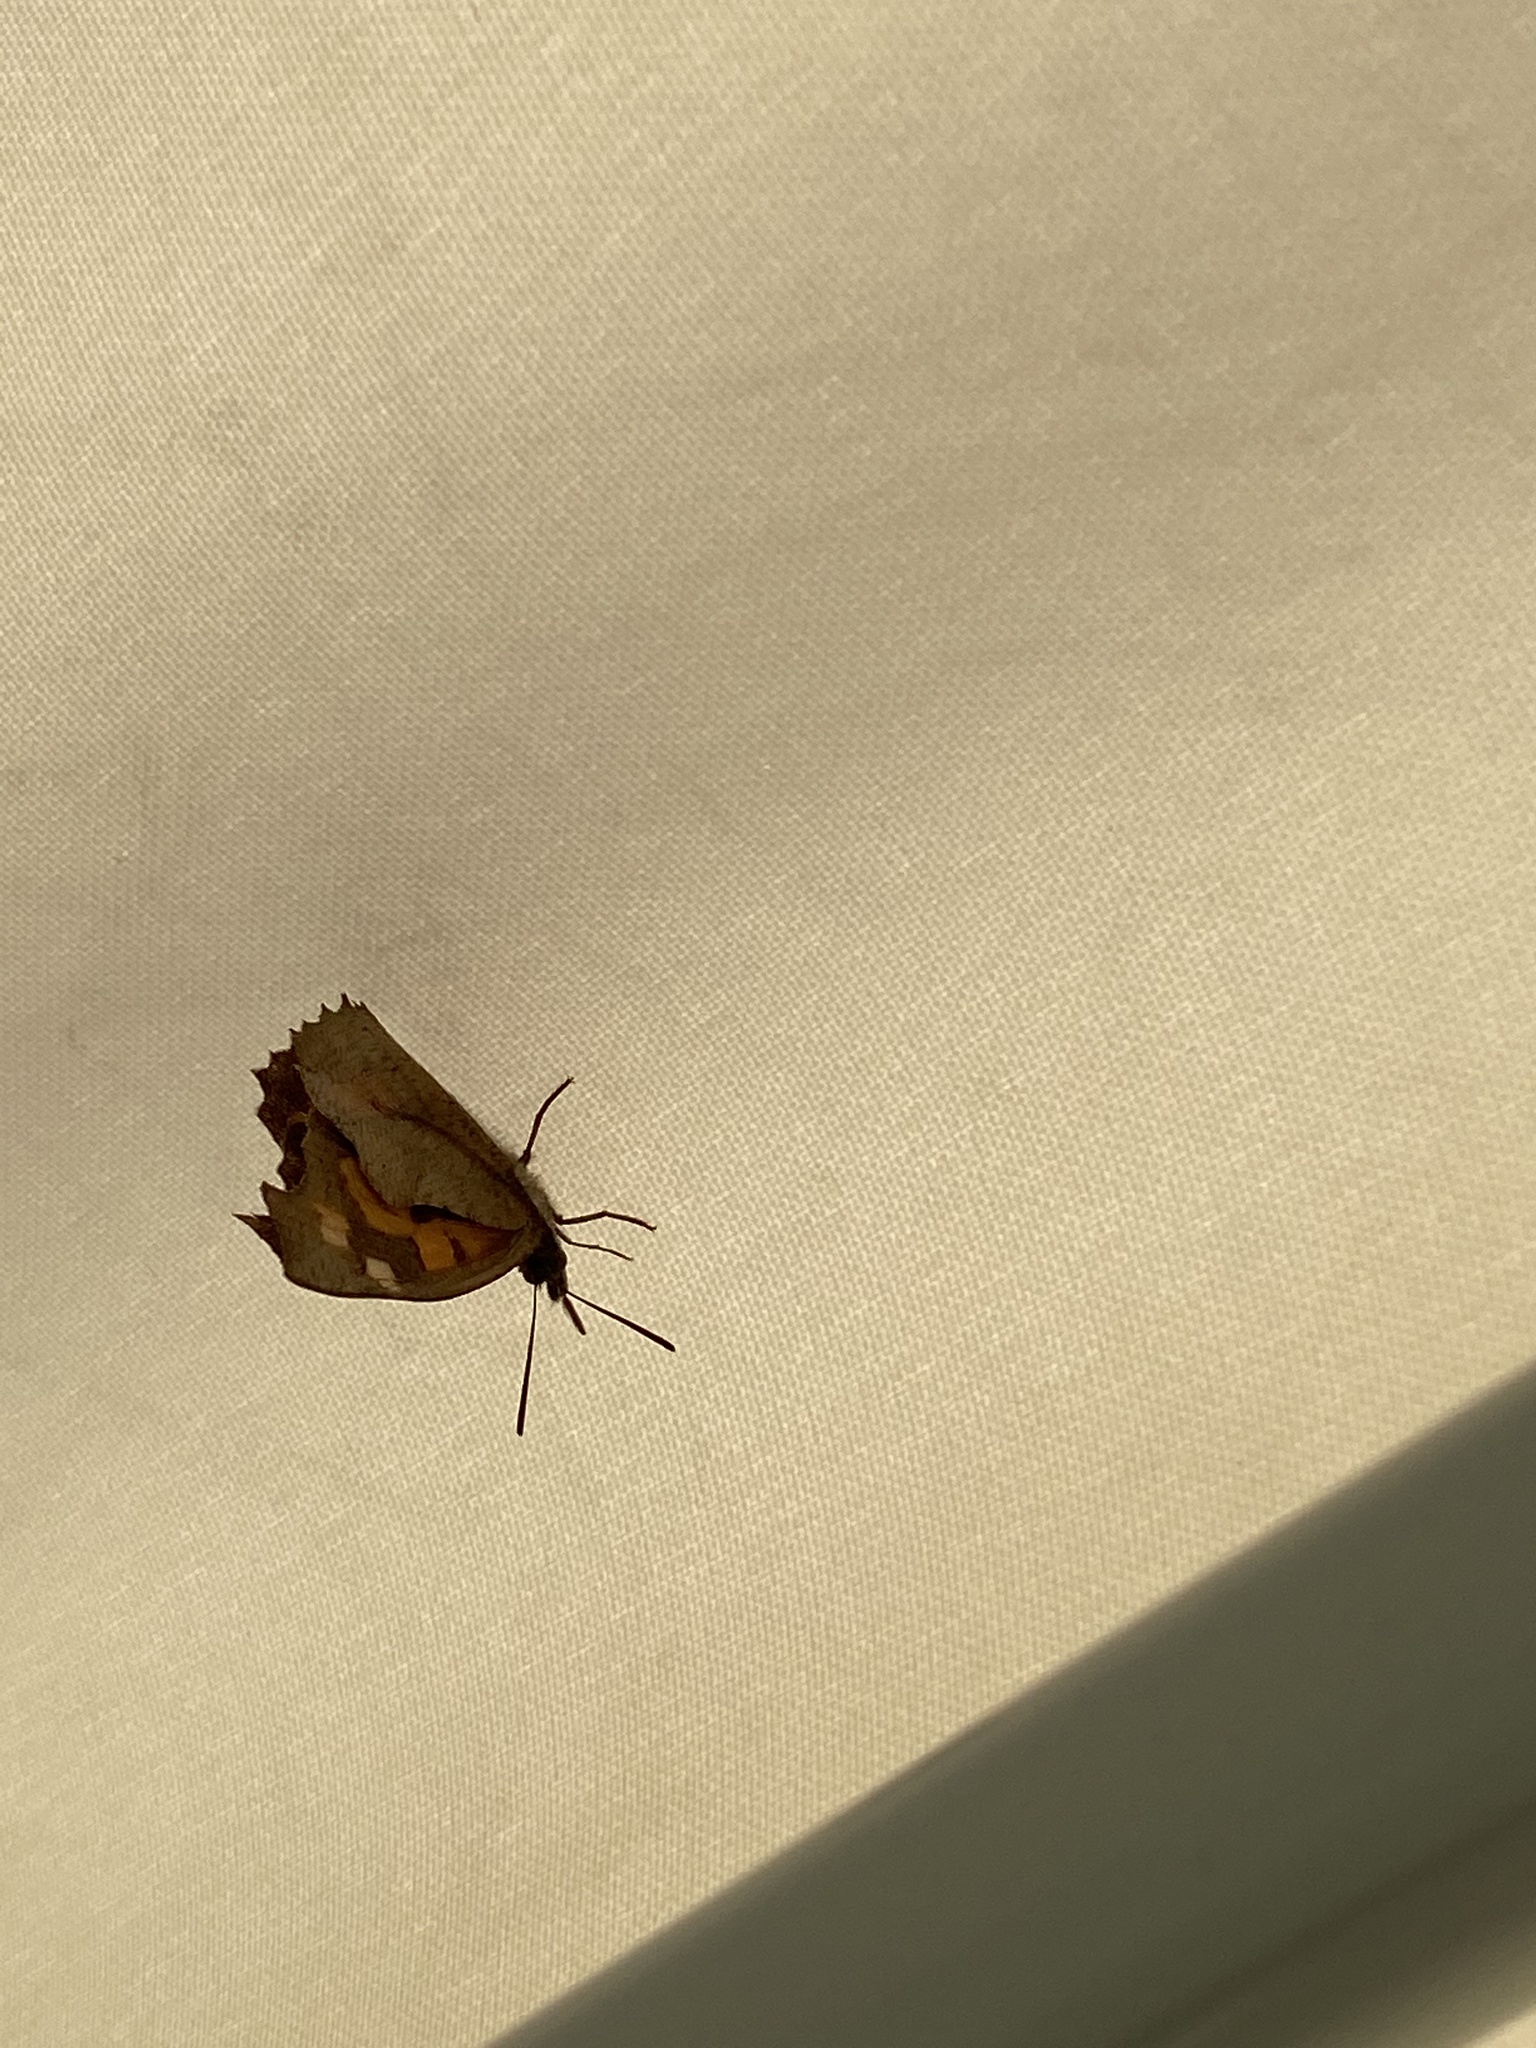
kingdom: Animalia
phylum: Arthropoda
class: Insecta
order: Lepidoptera
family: Nymphalidae
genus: Libythea
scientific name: Libythea celtis
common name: Nettle-tree butterfly
